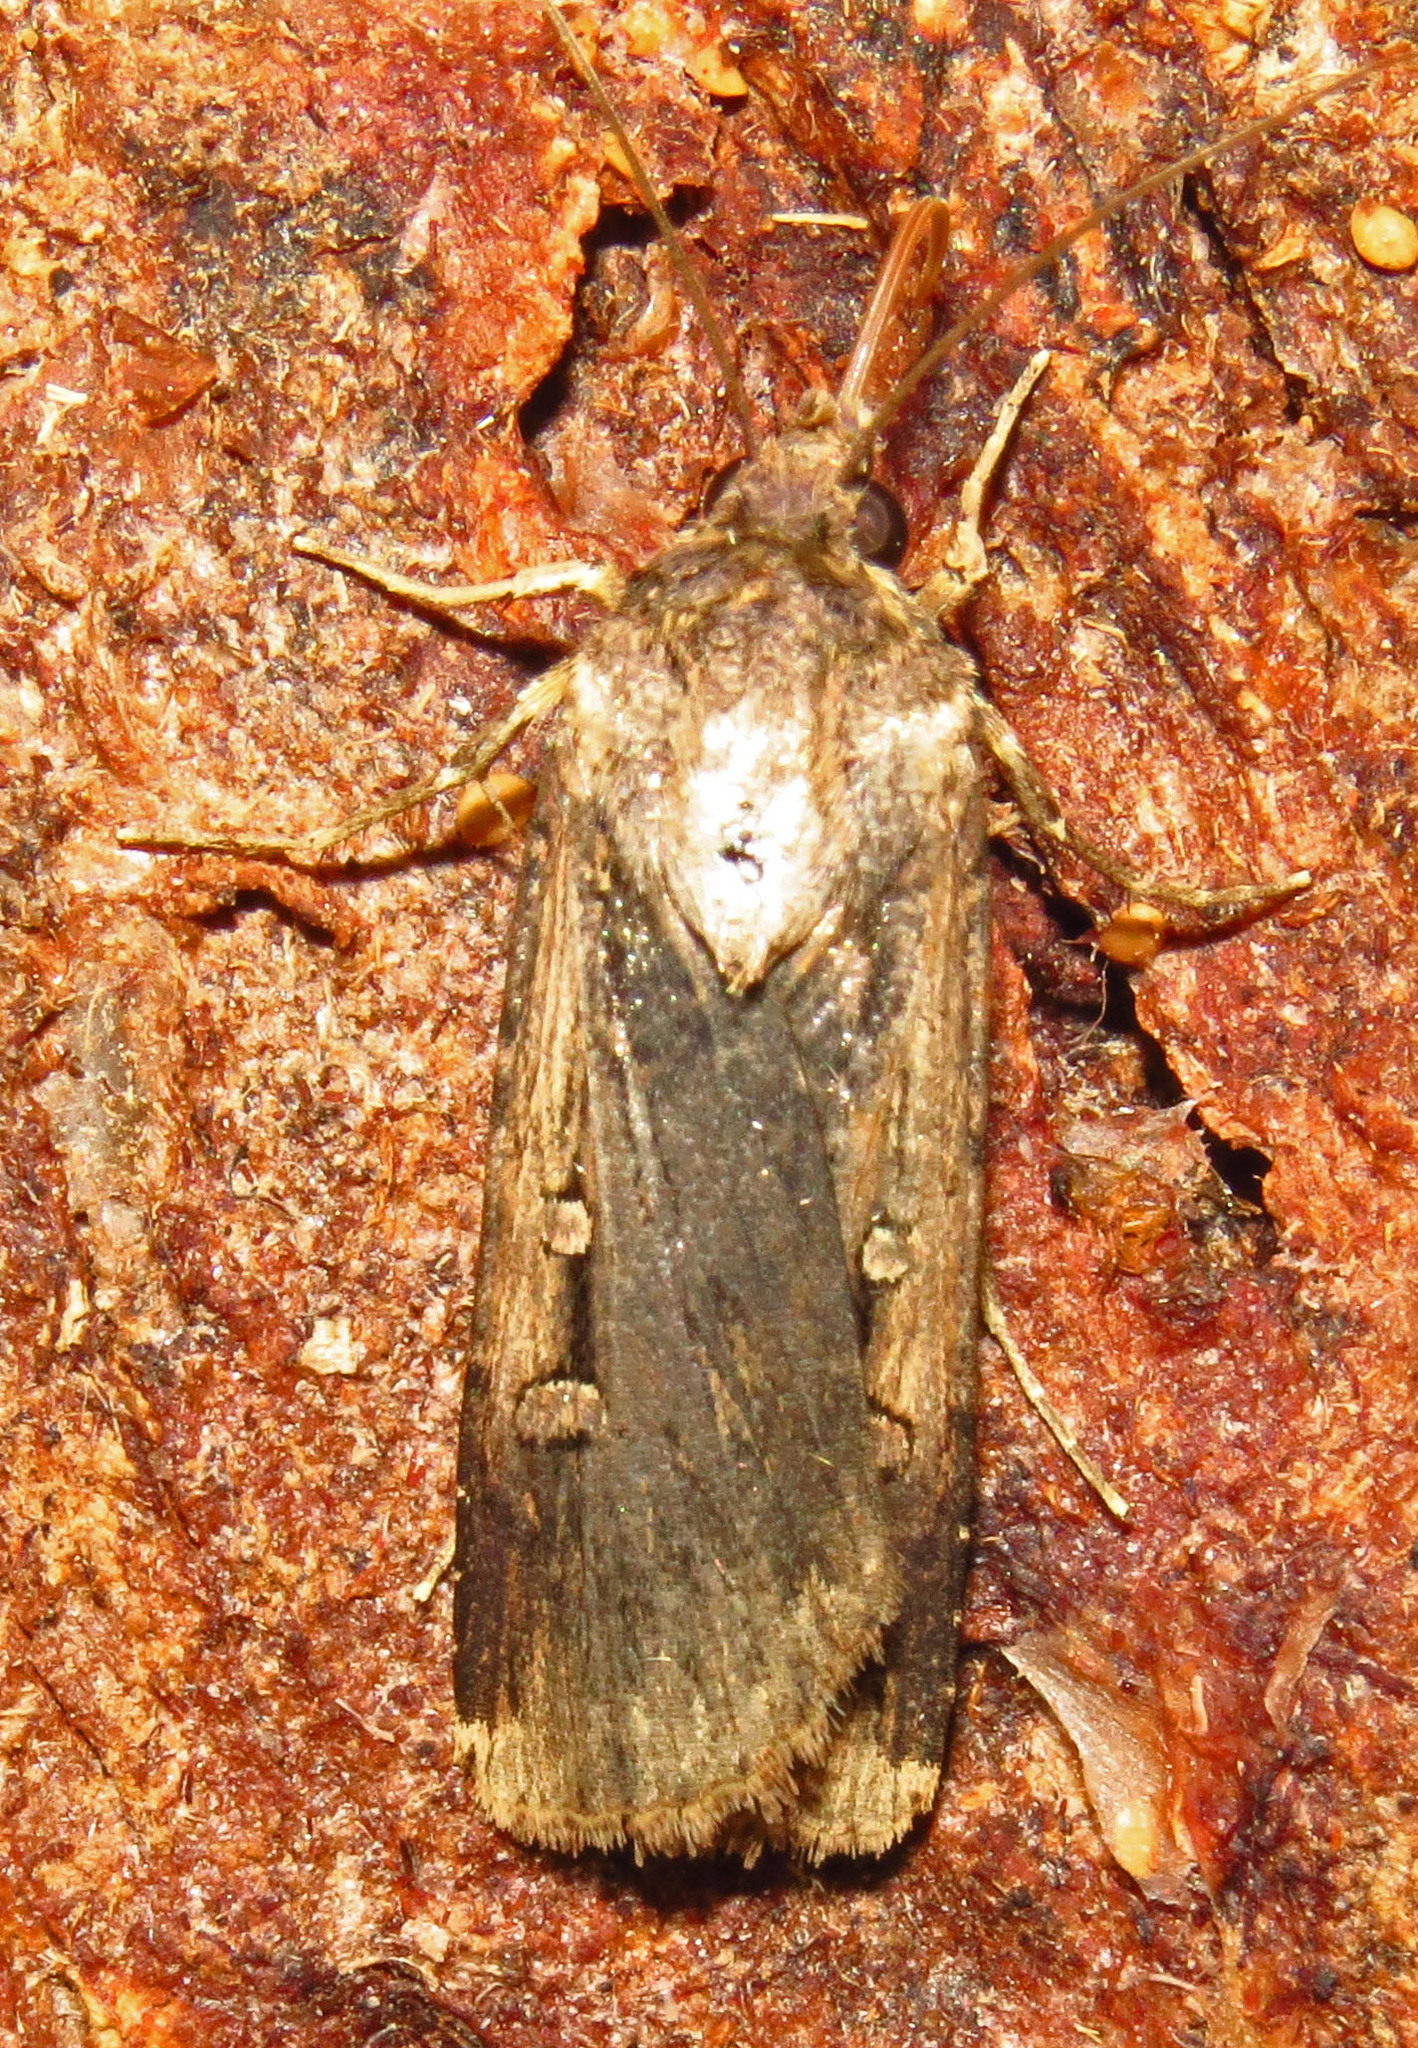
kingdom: Animalia
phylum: Arthropoda
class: Insecta
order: Lepidoptera
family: Noctuidae
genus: Feltia
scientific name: Feltia subterranea
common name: Granulate cutworm
